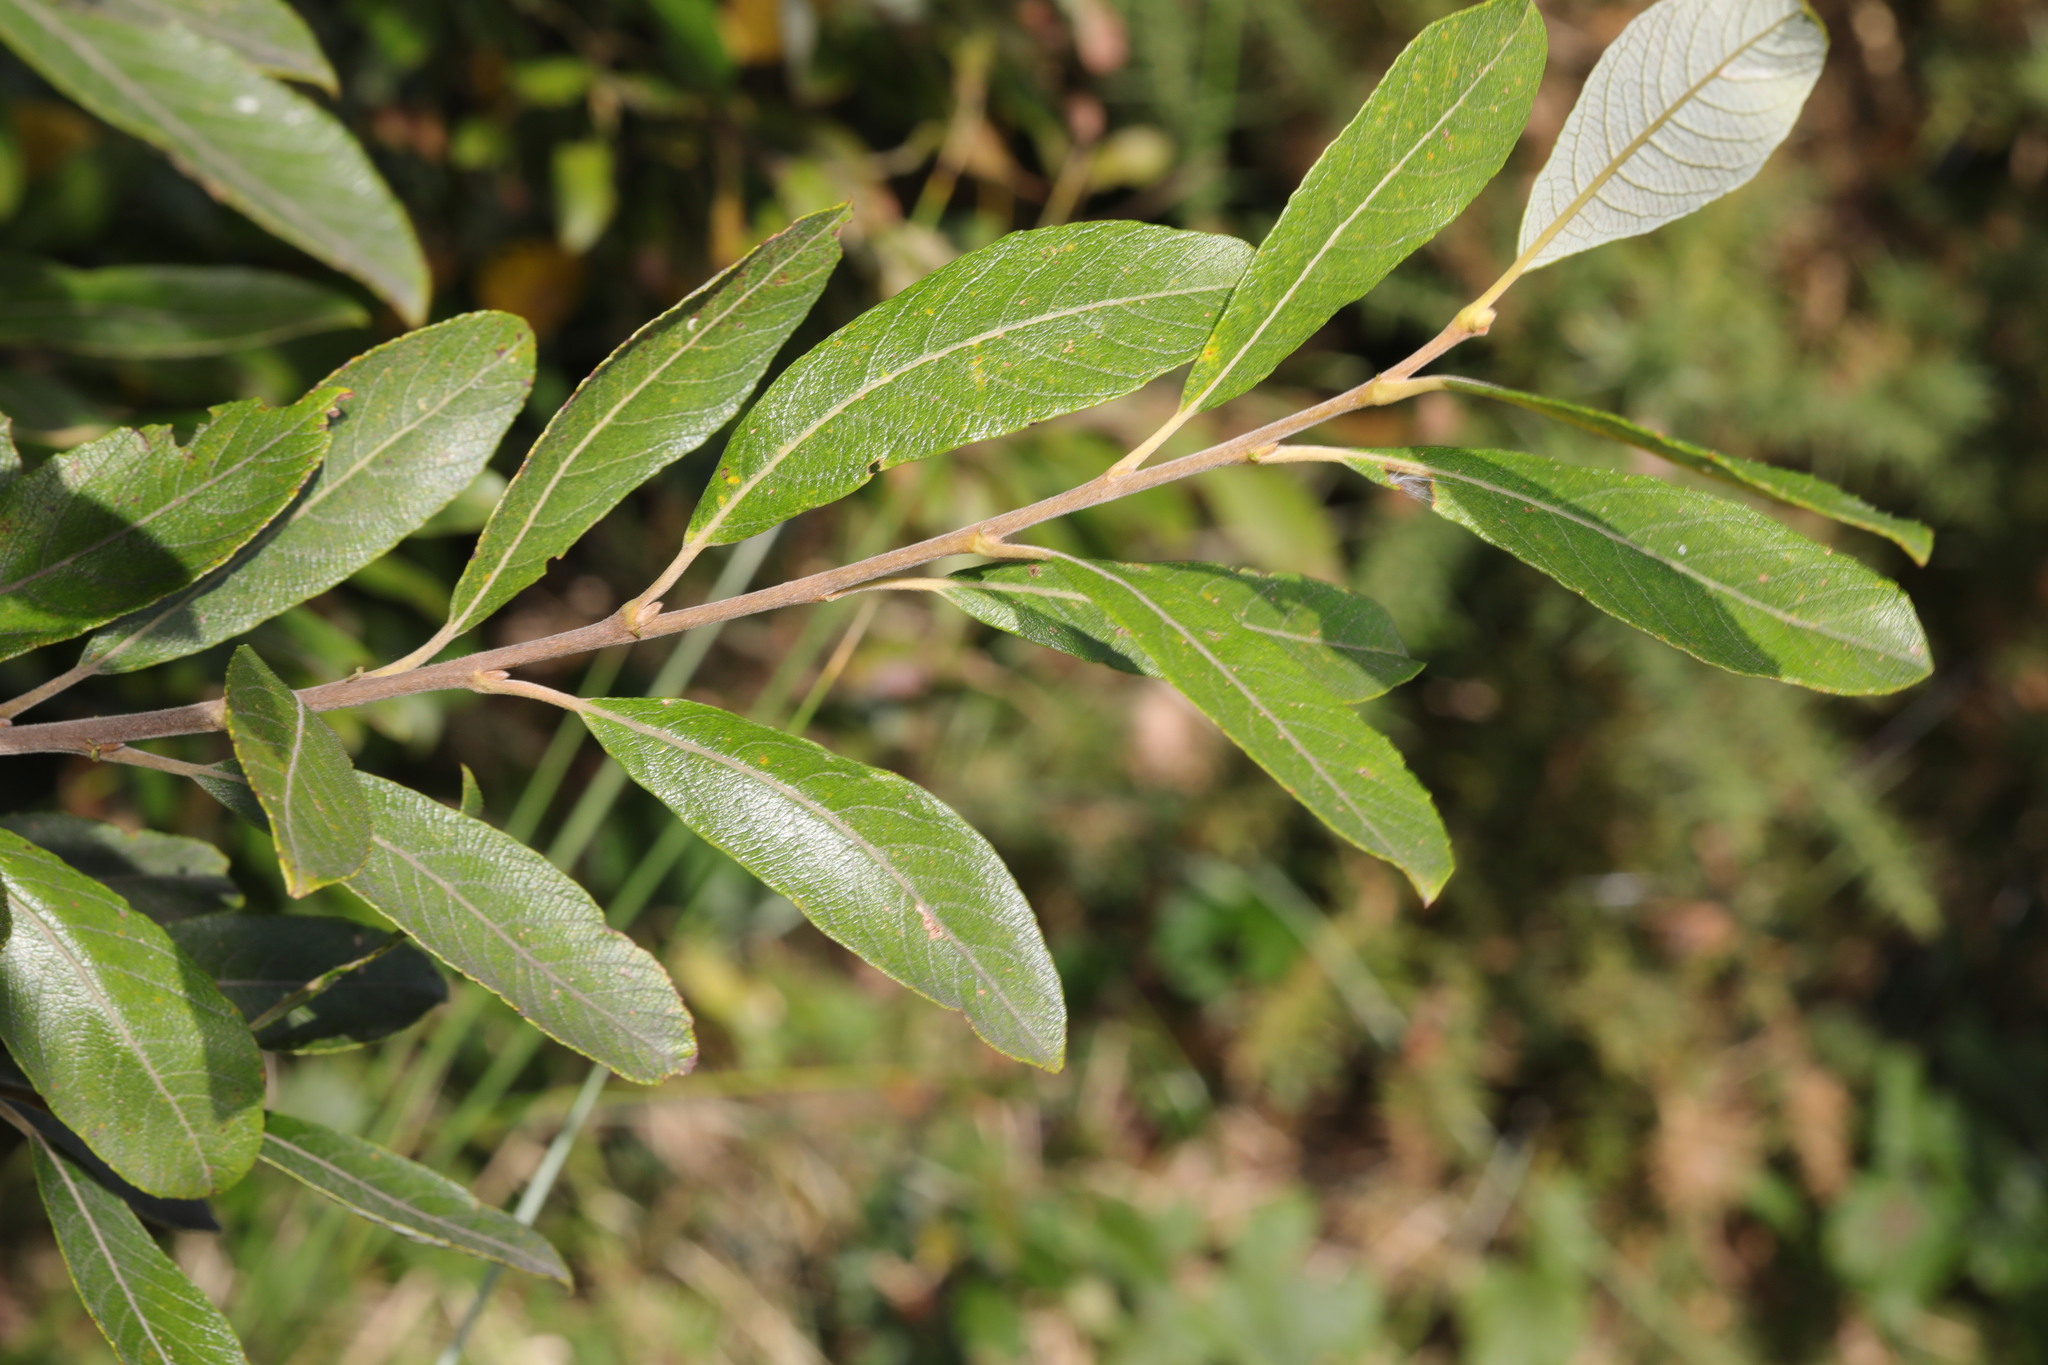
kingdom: Plantae
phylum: Tracheophyta
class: Magnoliopsida
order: Malpighiales
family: Salicaceae
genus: Salix
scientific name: Salix cinerea
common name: Common sallow
